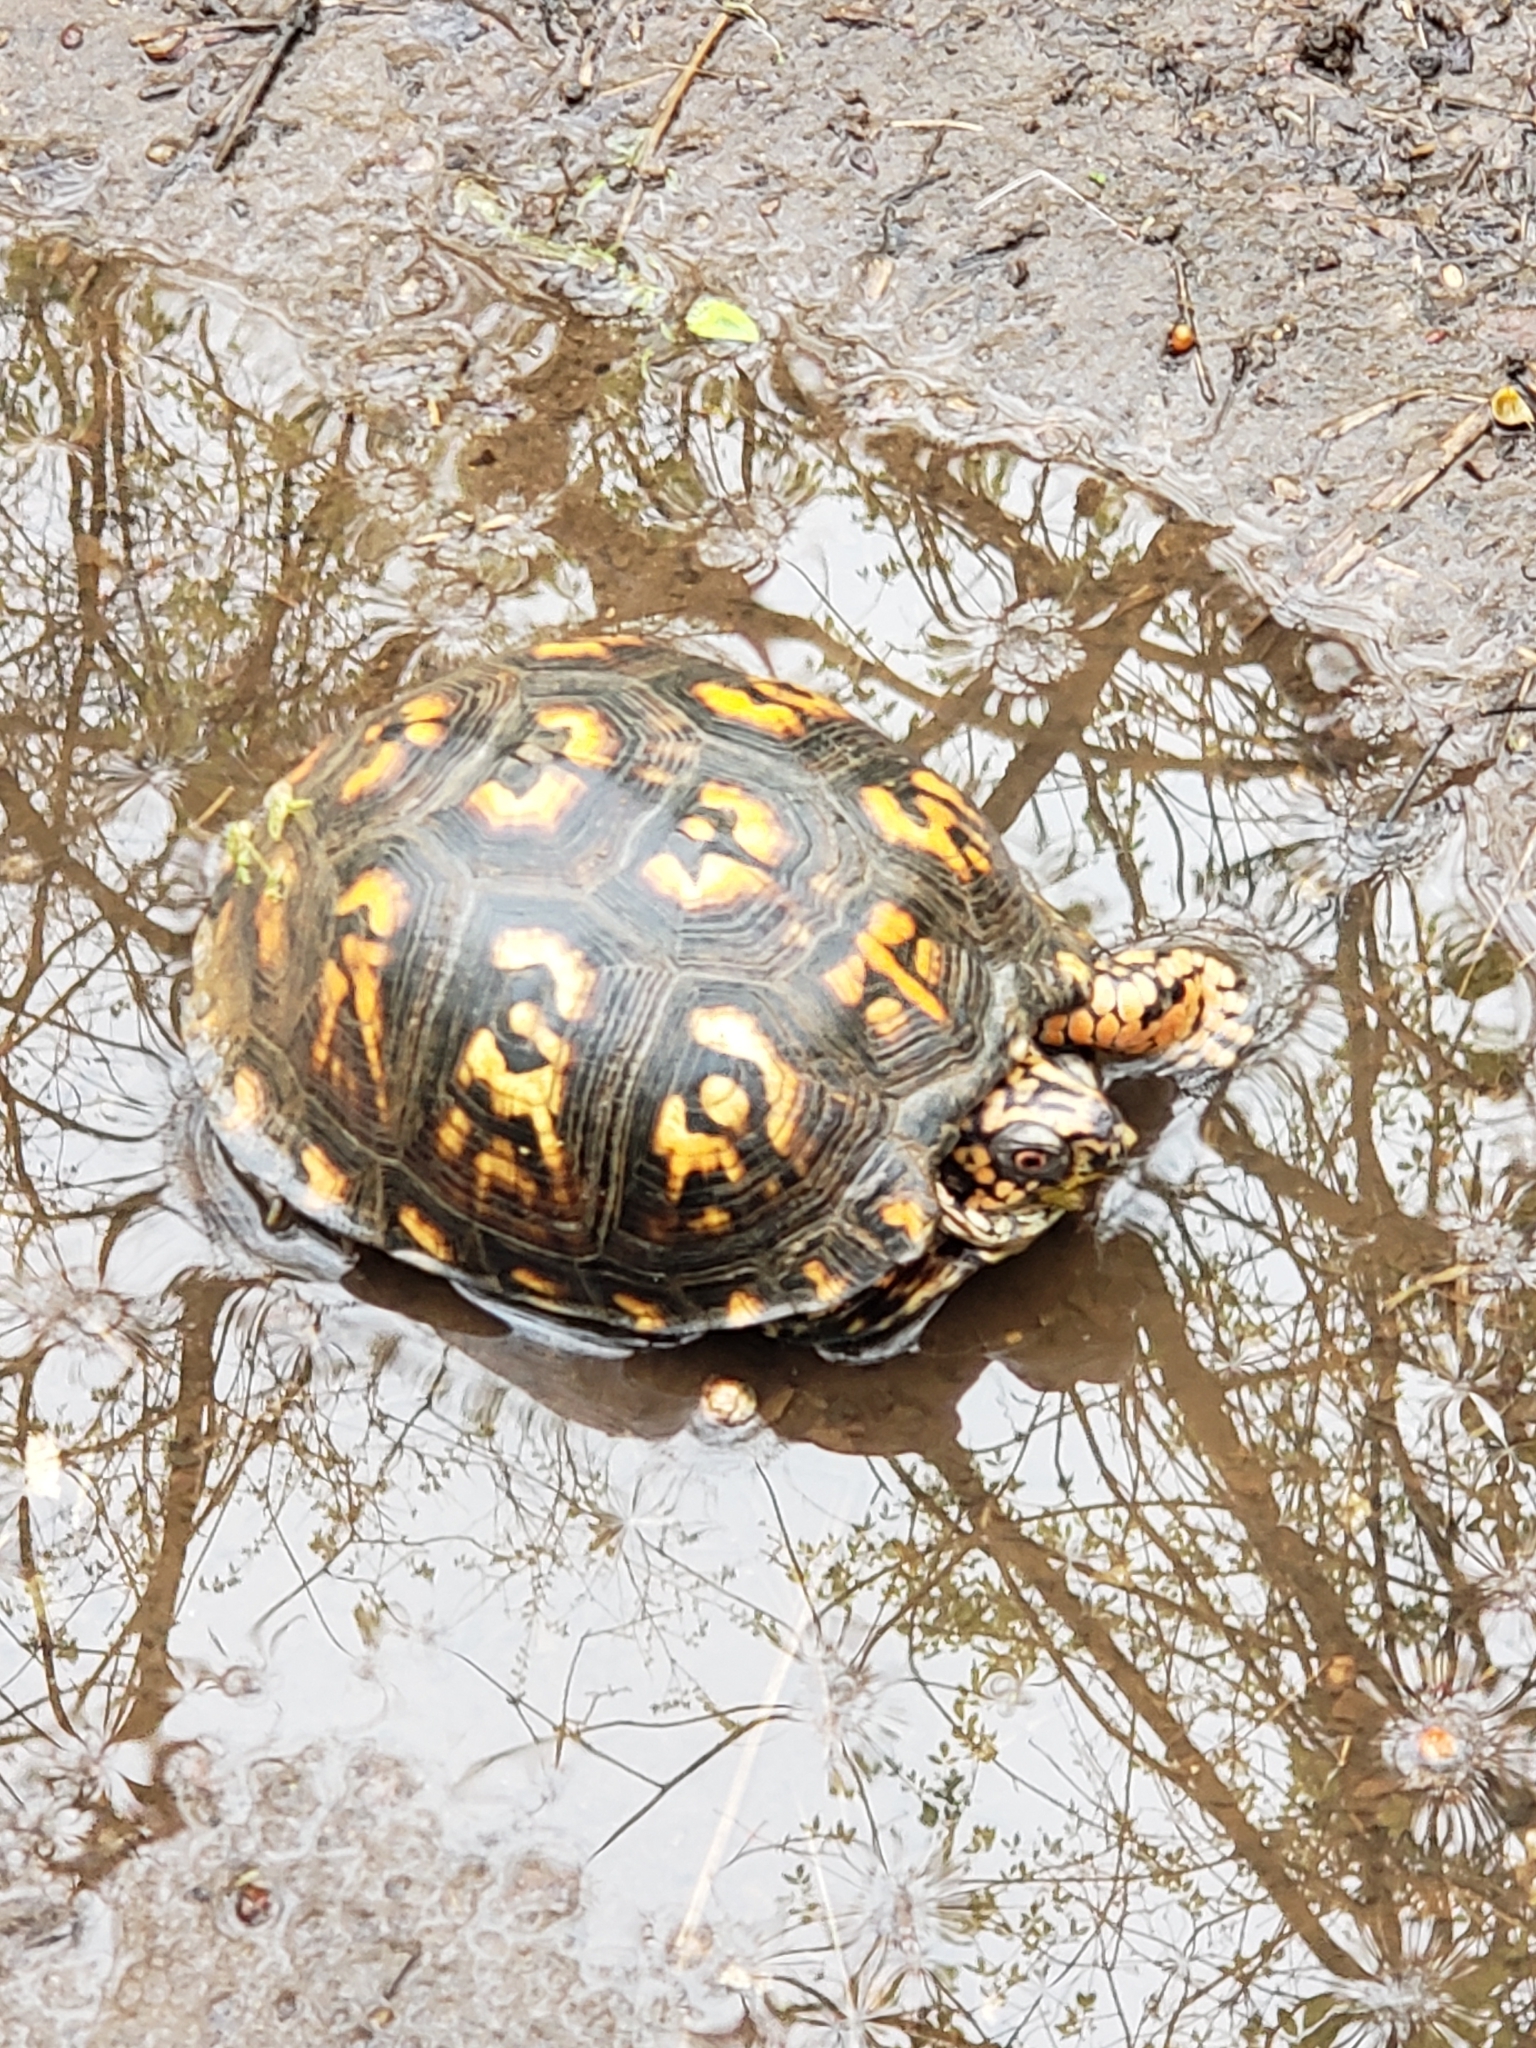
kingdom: Animalia
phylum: Chordata
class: Testudines
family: Emydidae
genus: Terrapene
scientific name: Terrapene carolina
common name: Common box turtle
